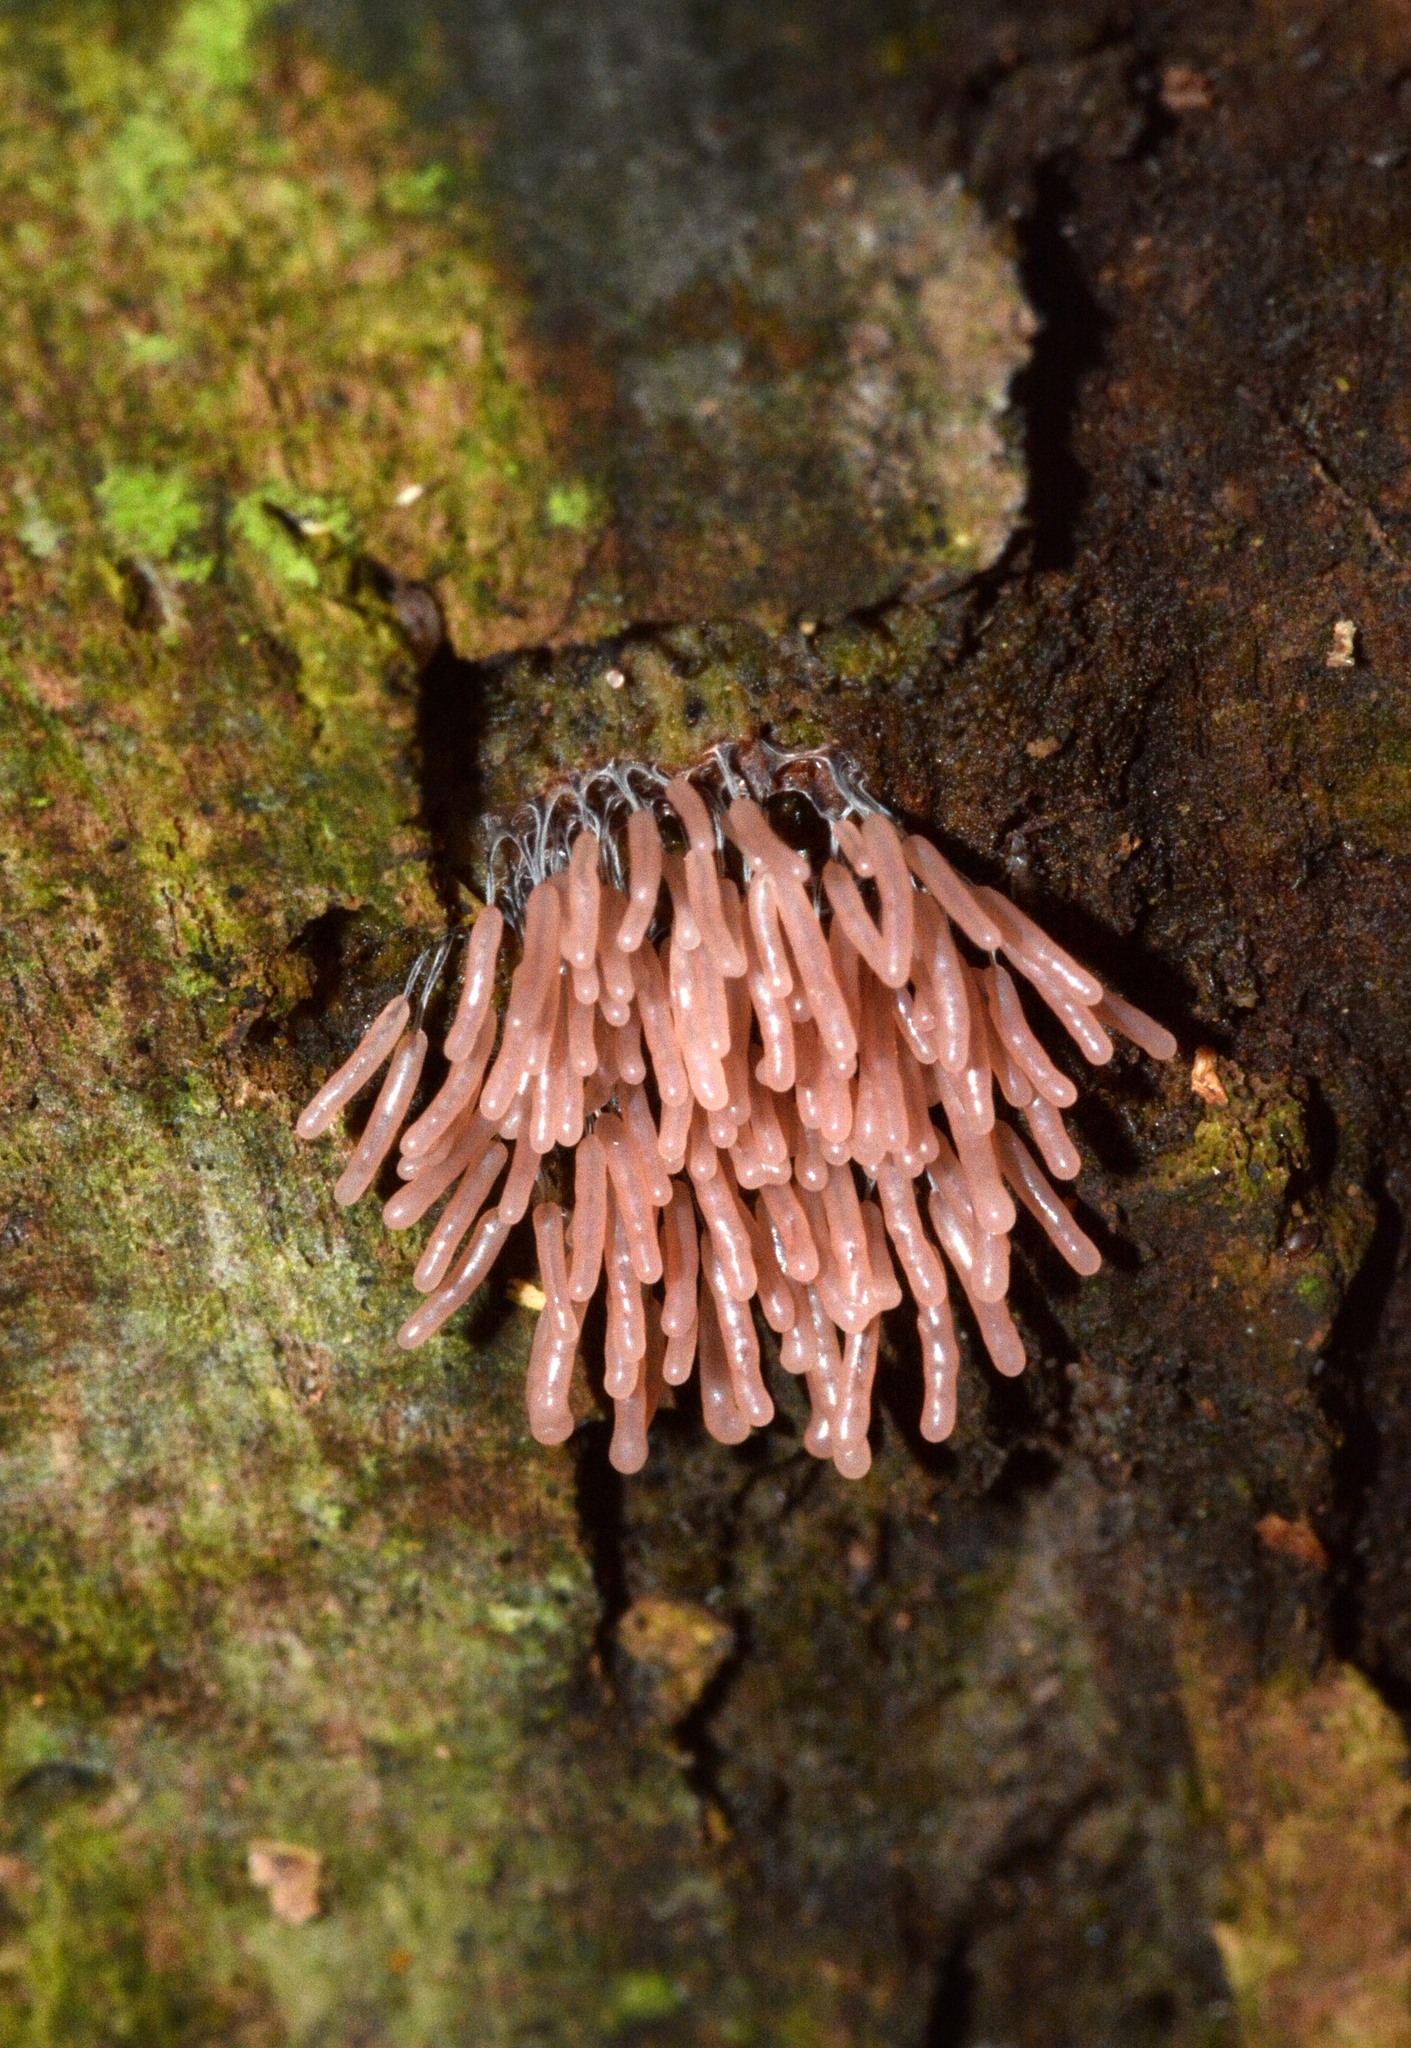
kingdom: Protozoa
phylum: Mycetozoa
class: Myxomycetes
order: Stemonitidales
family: Stemonitidaceae
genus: Stemonitopsis
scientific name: Stemonitopsis typhina
